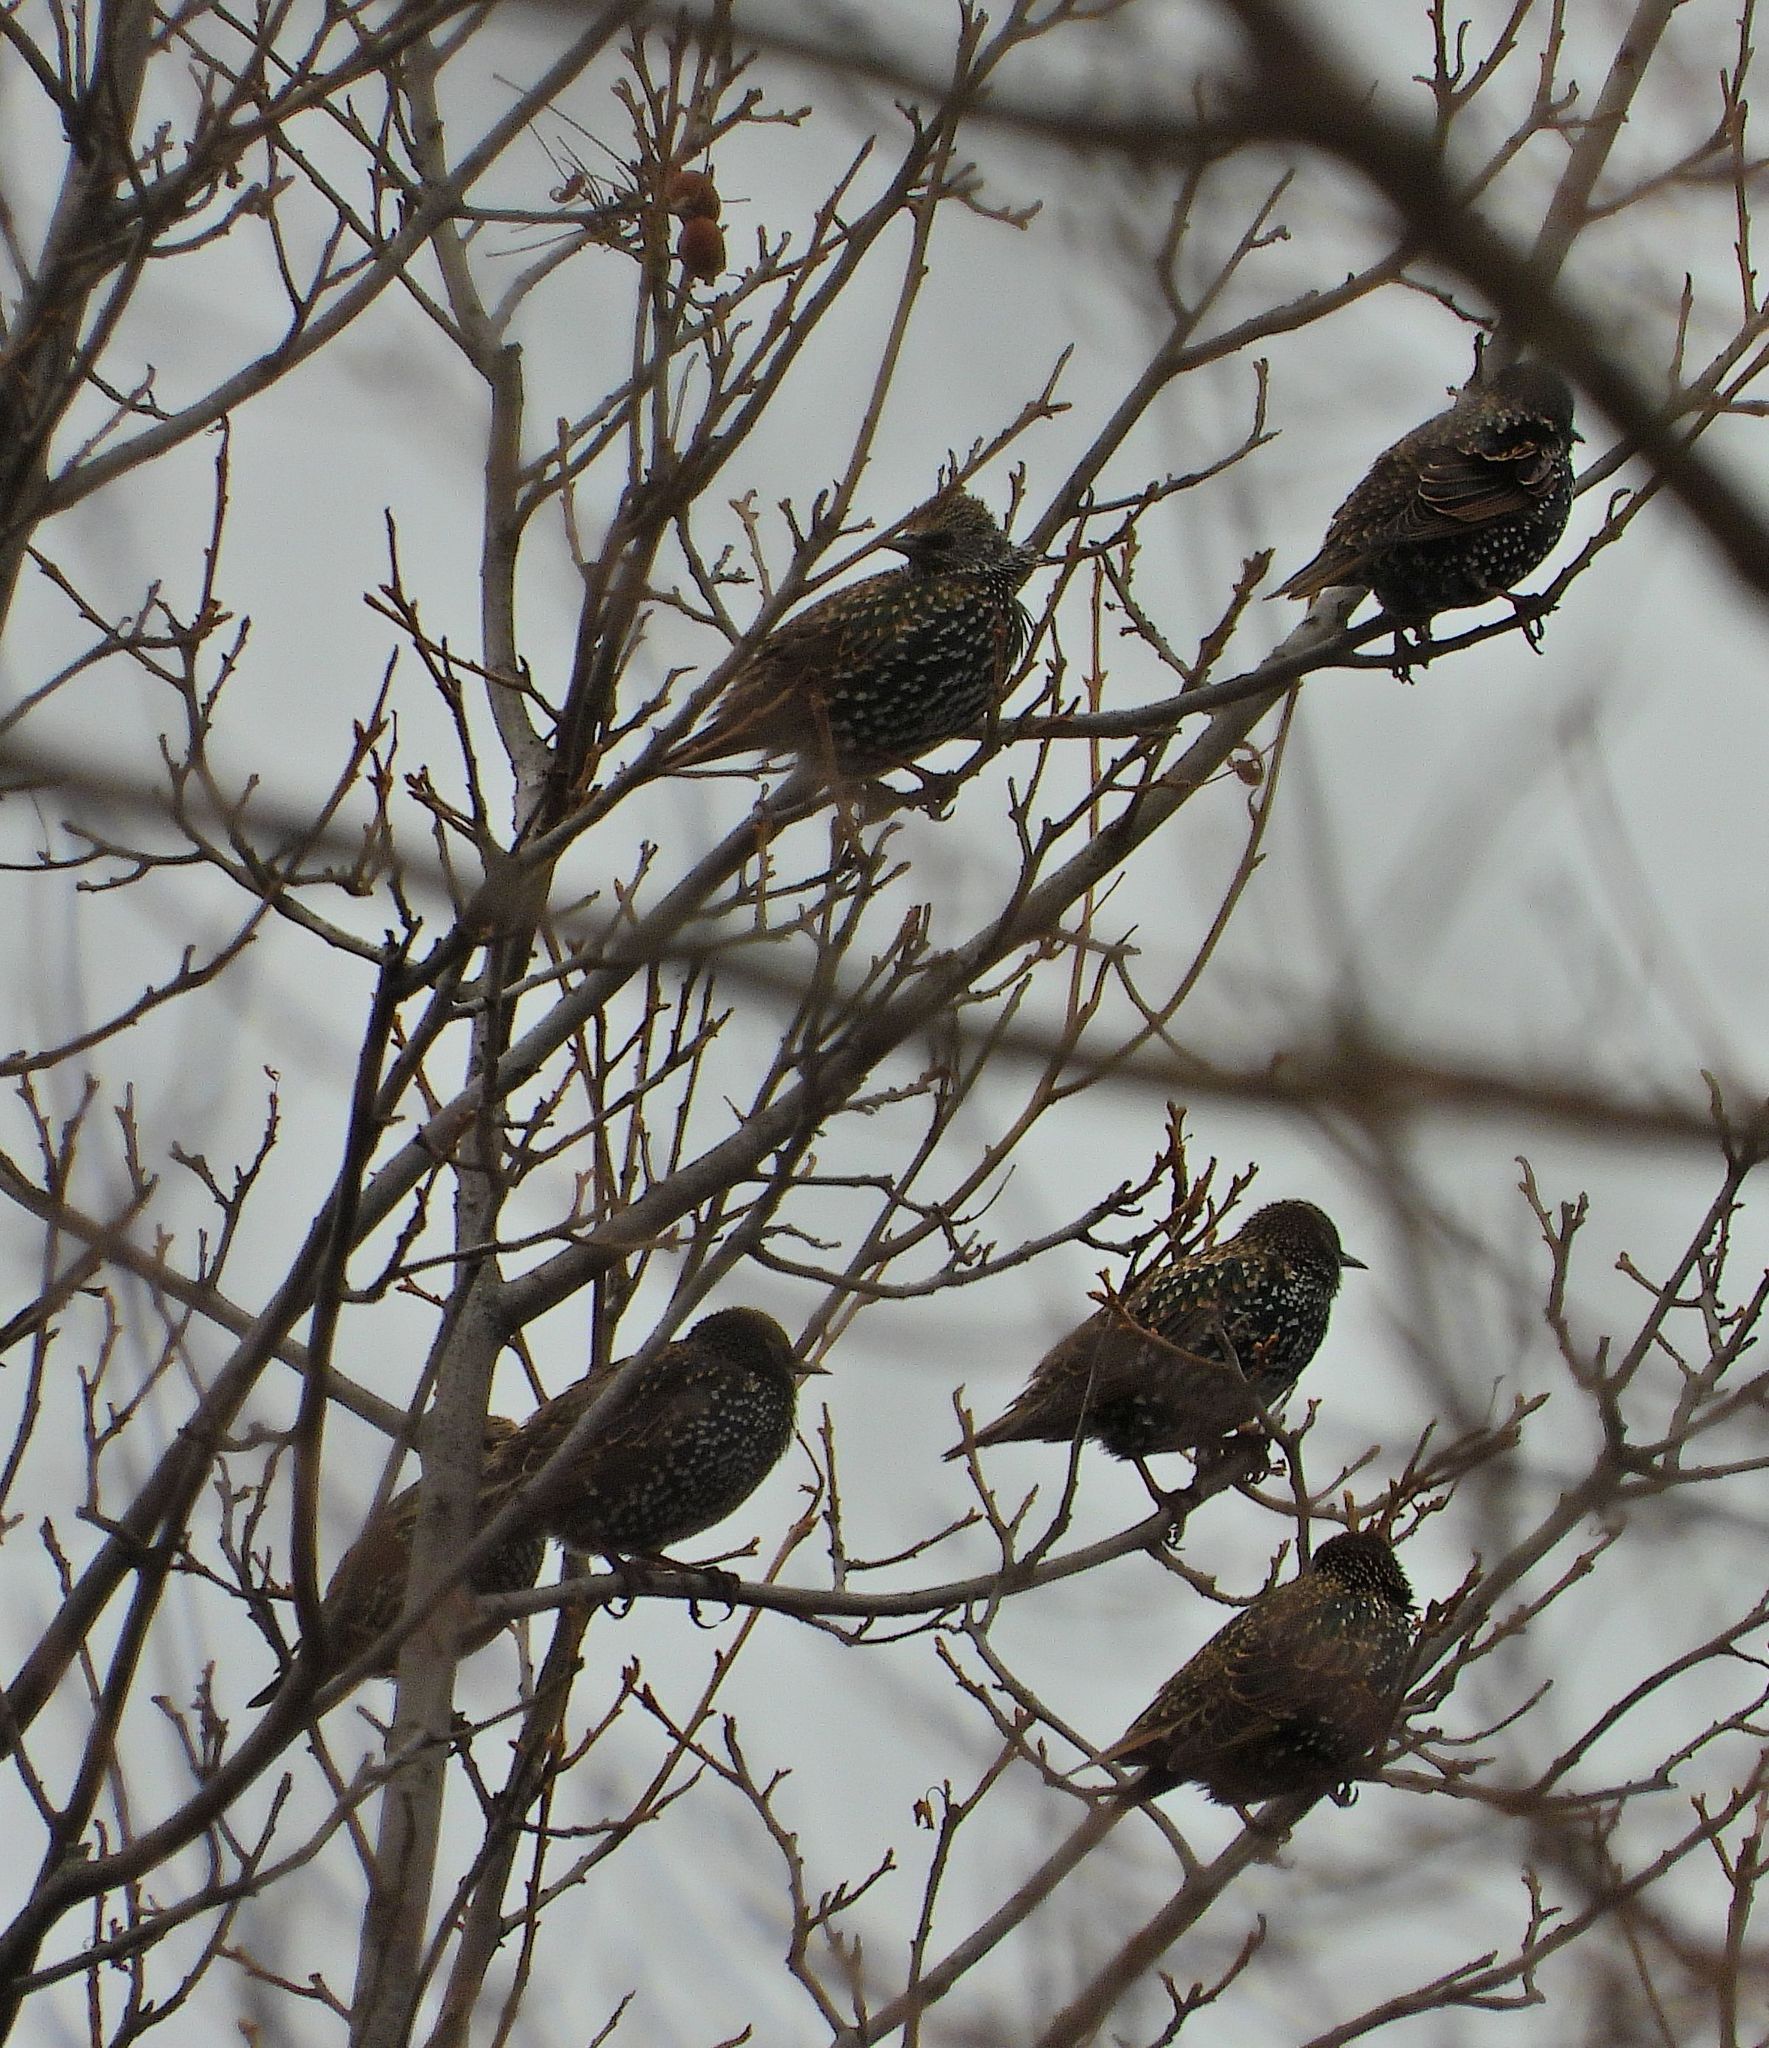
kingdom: Animalia
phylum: Chordata
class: Aves
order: Passeriformes
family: Sturnidae
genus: Sturnus
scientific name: Sturnus vulgaris
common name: Common starling
